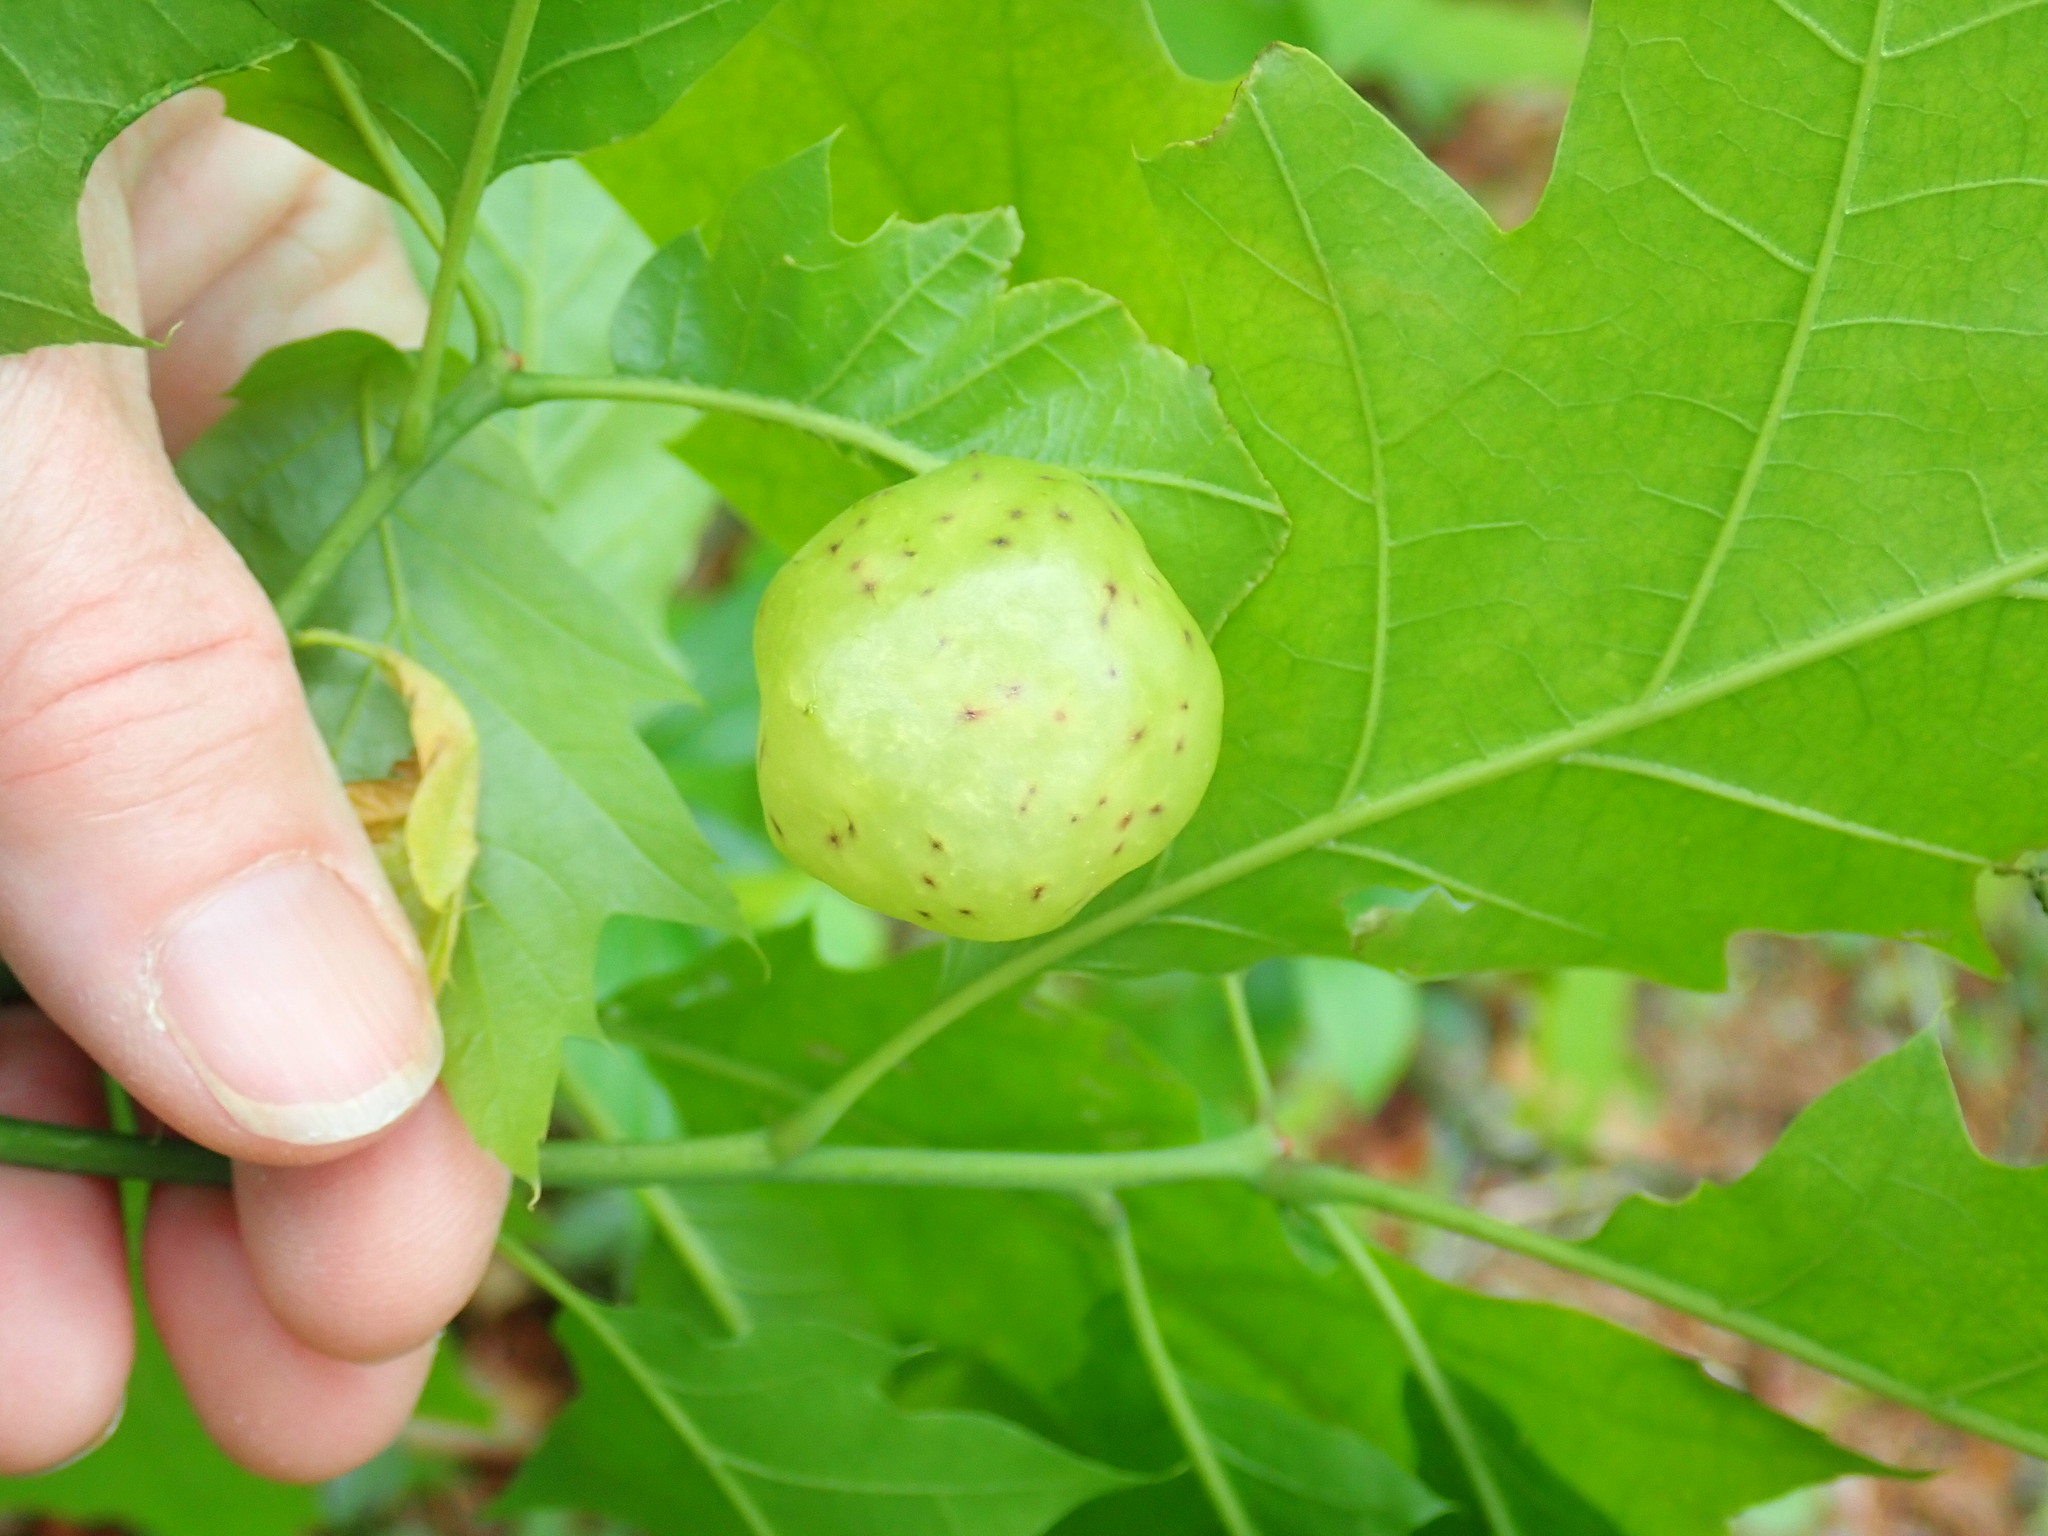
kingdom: Animalia
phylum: Arthropoda
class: Insecta
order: Hymenoptera
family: Cynipidae
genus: Amphibolips
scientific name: Amphibolips
